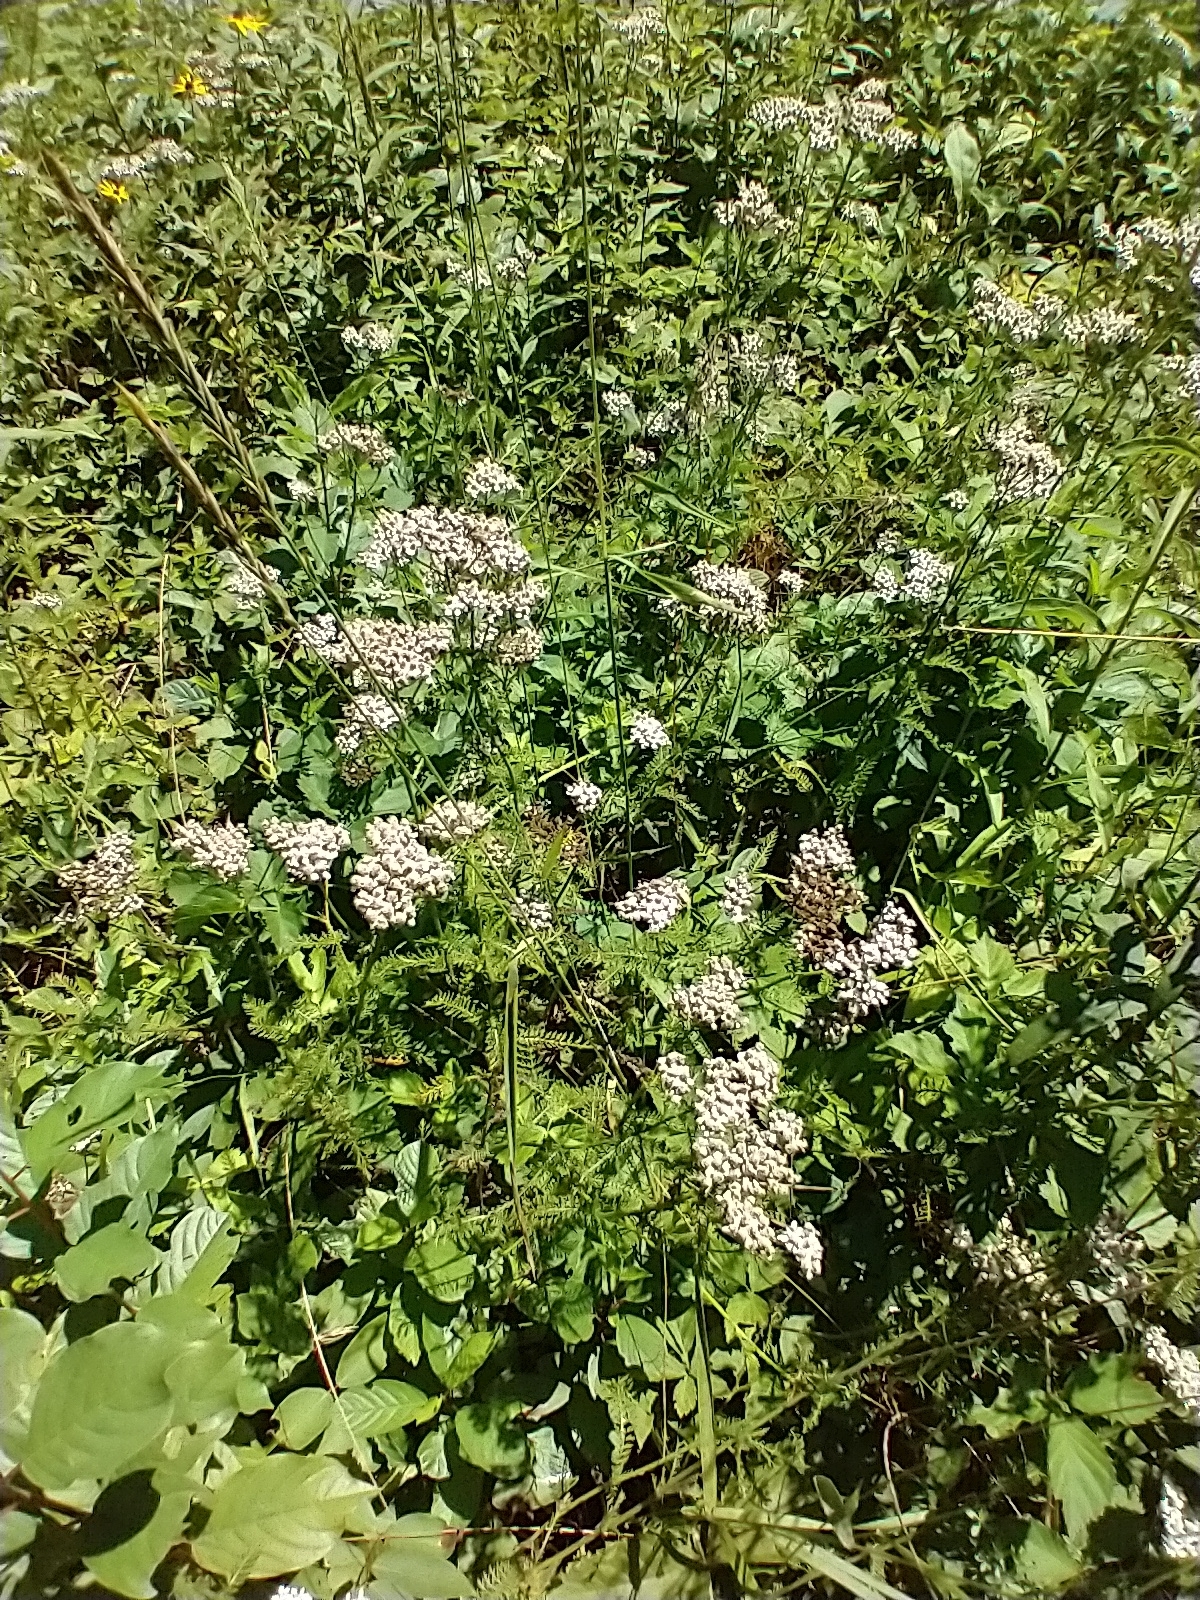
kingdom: Plantae
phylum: Tracheophyta
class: Magnoliopsida
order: Asterales
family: Asteraceae
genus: Achillea
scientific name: Achillea millefolium
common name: Yarrow
